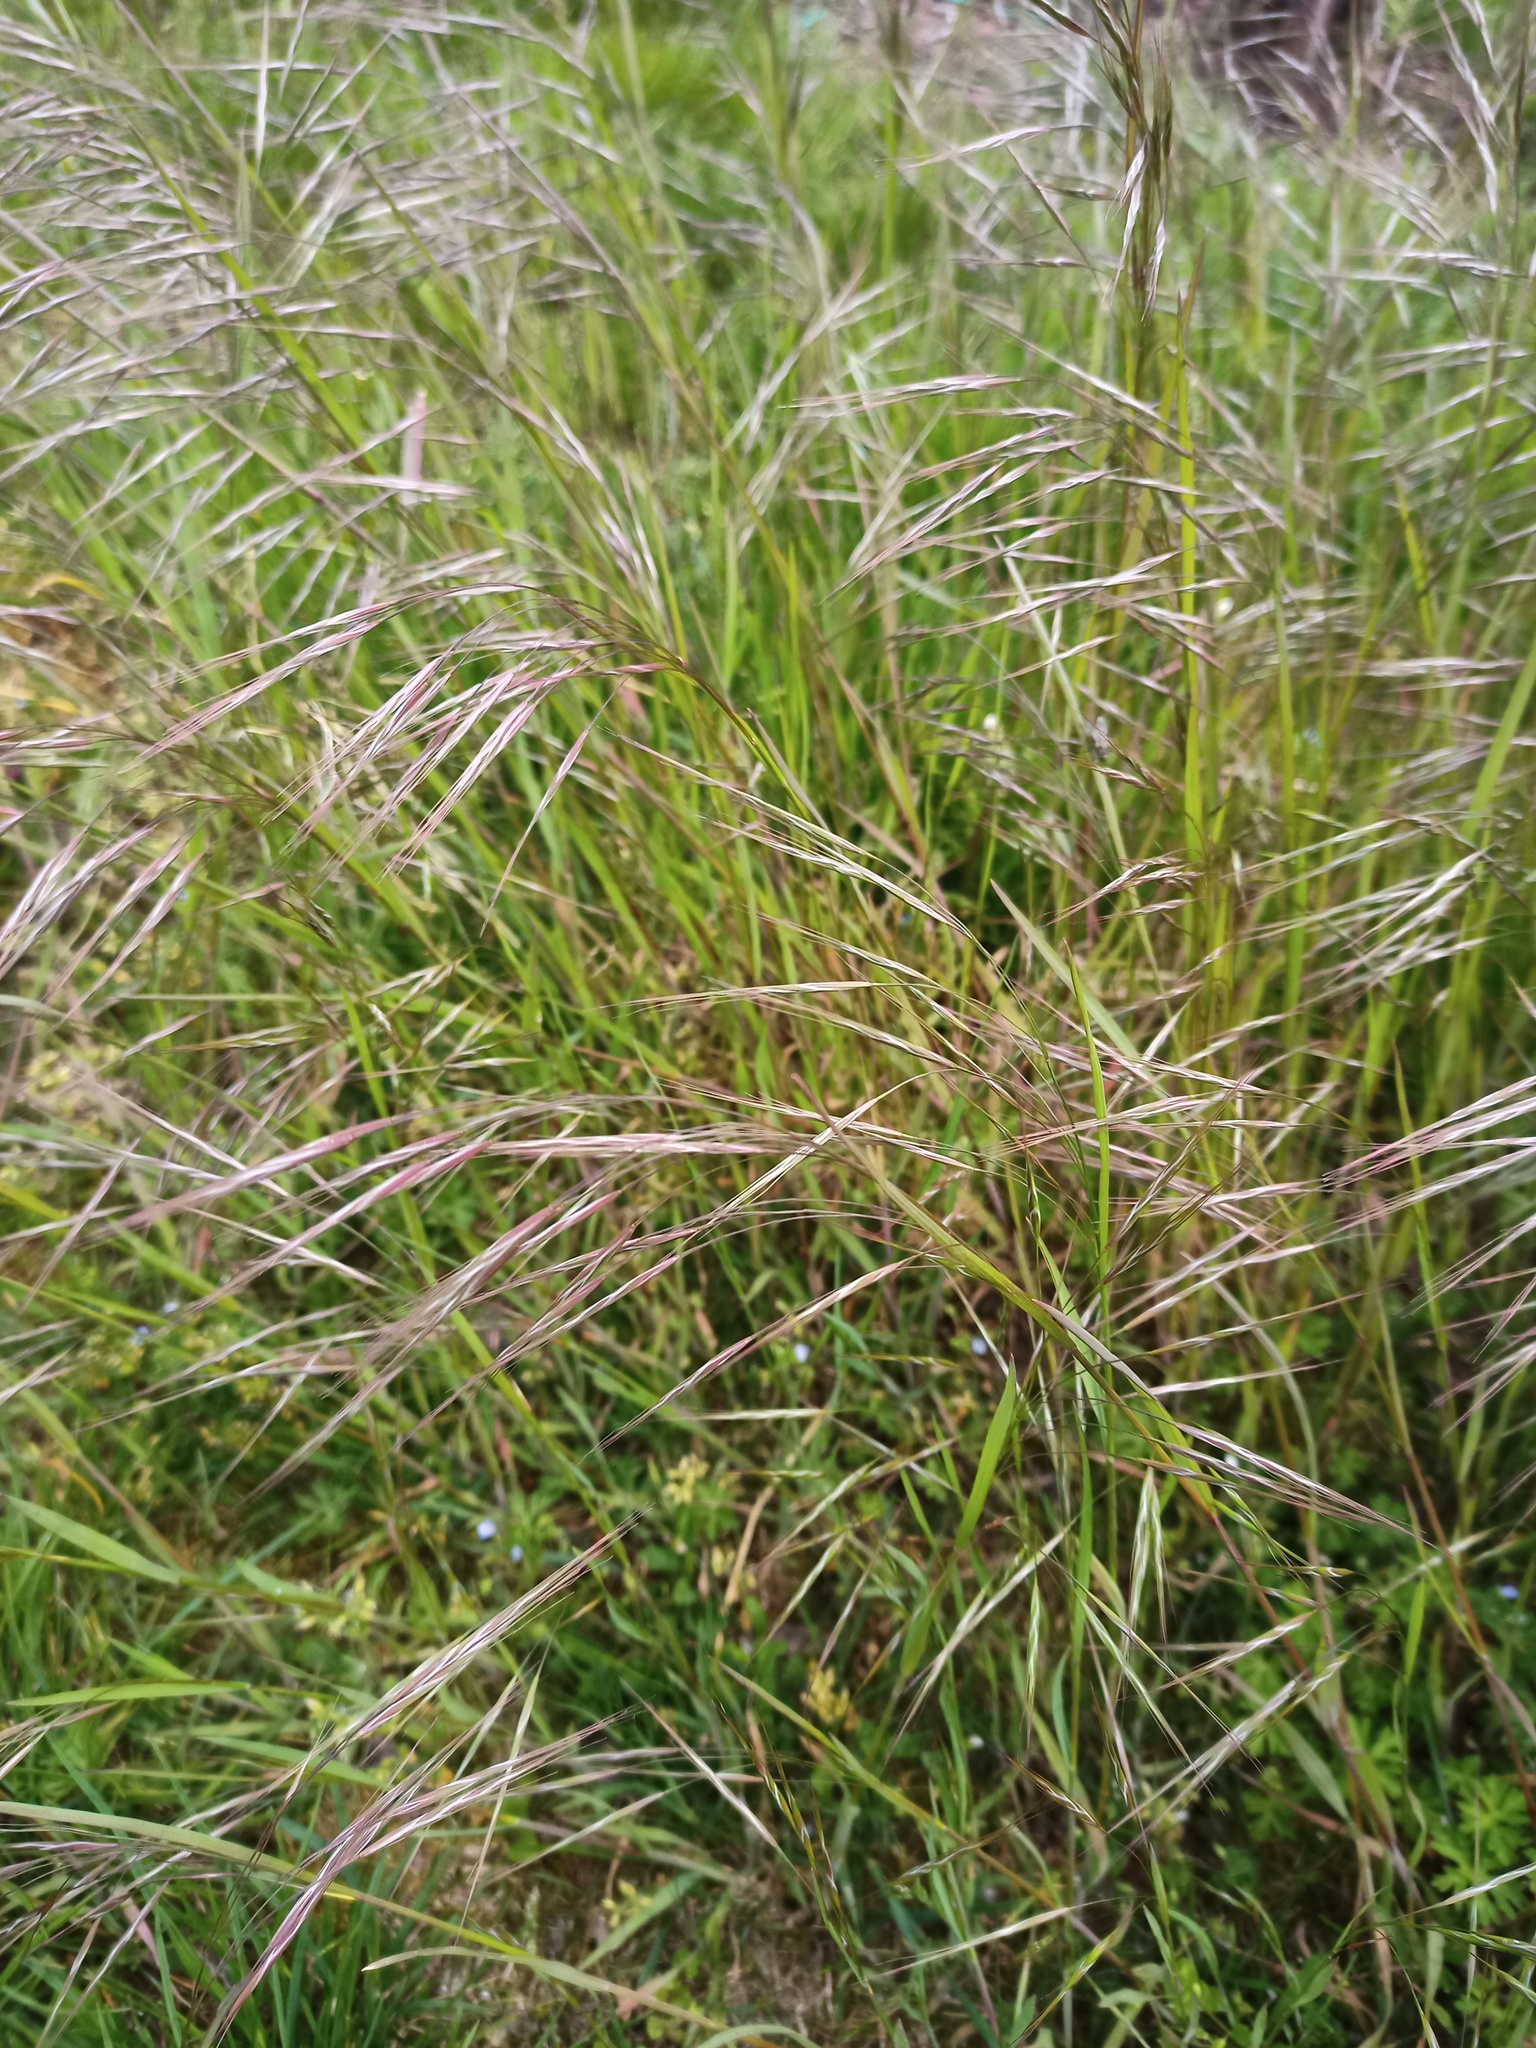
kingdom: Plantae
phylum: Tracheophyta
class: Liliopsida
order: Poales
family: Poaceae
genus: Bromus
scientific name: Bromus sterilis
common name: Poverty brome
